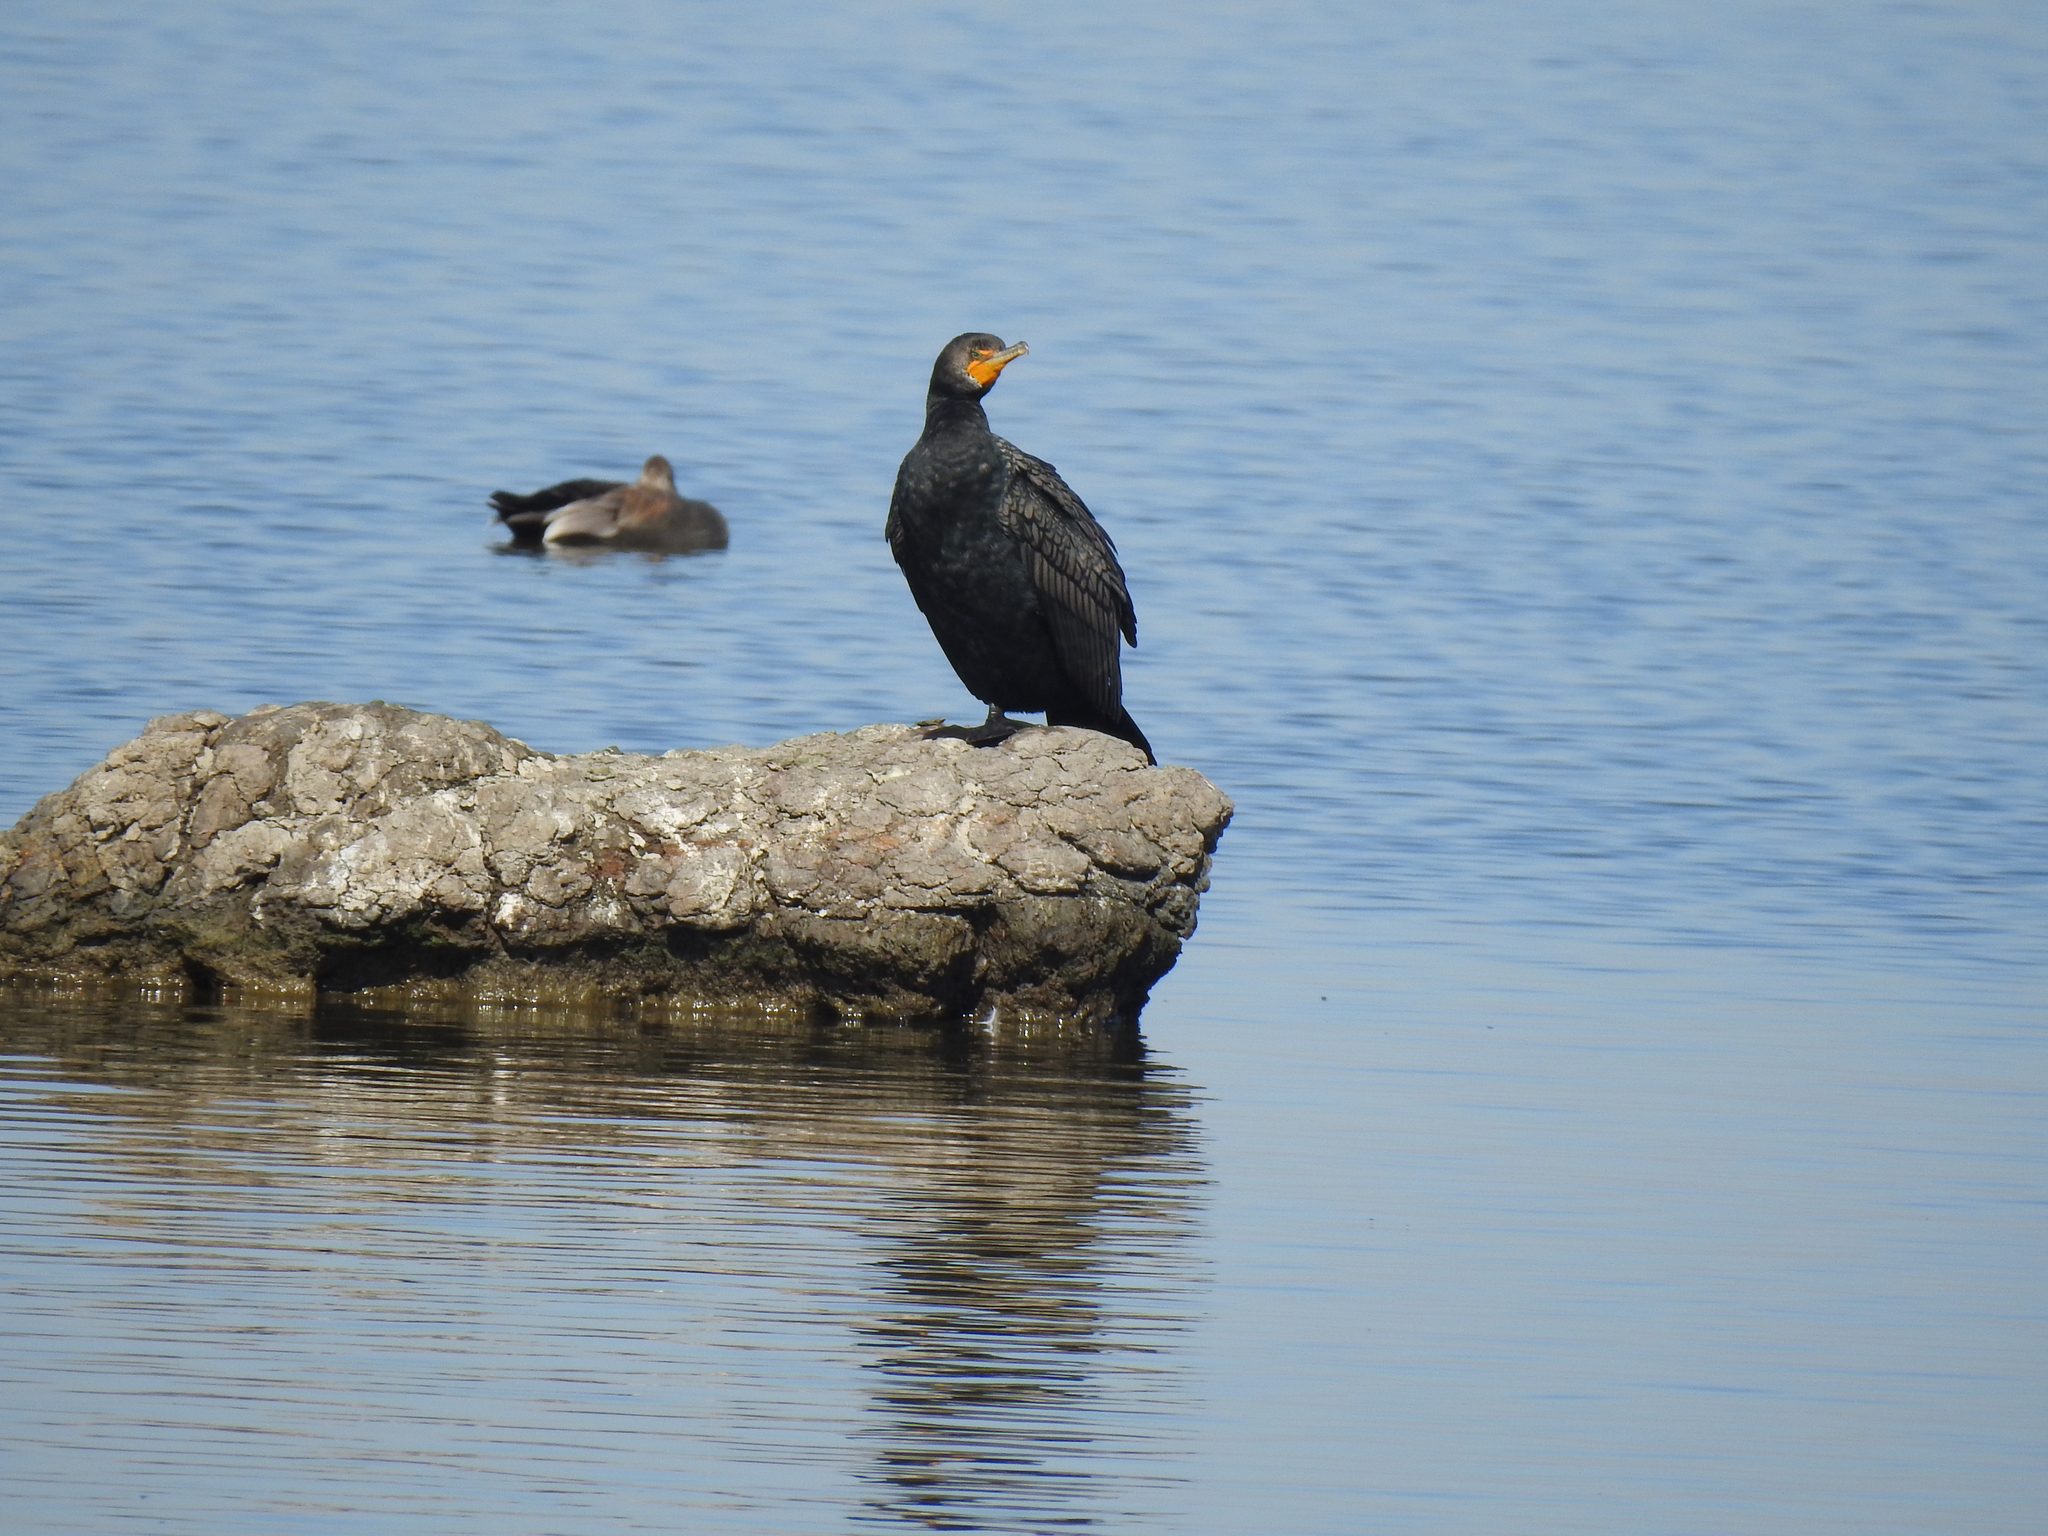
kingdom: Animalia
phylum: Chordata
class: Aves
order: Suliformes
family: Phalacrocoracidae
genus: Phalacrocorax
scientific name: Phalacrocorax auritus
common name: Double-crested cormorant
